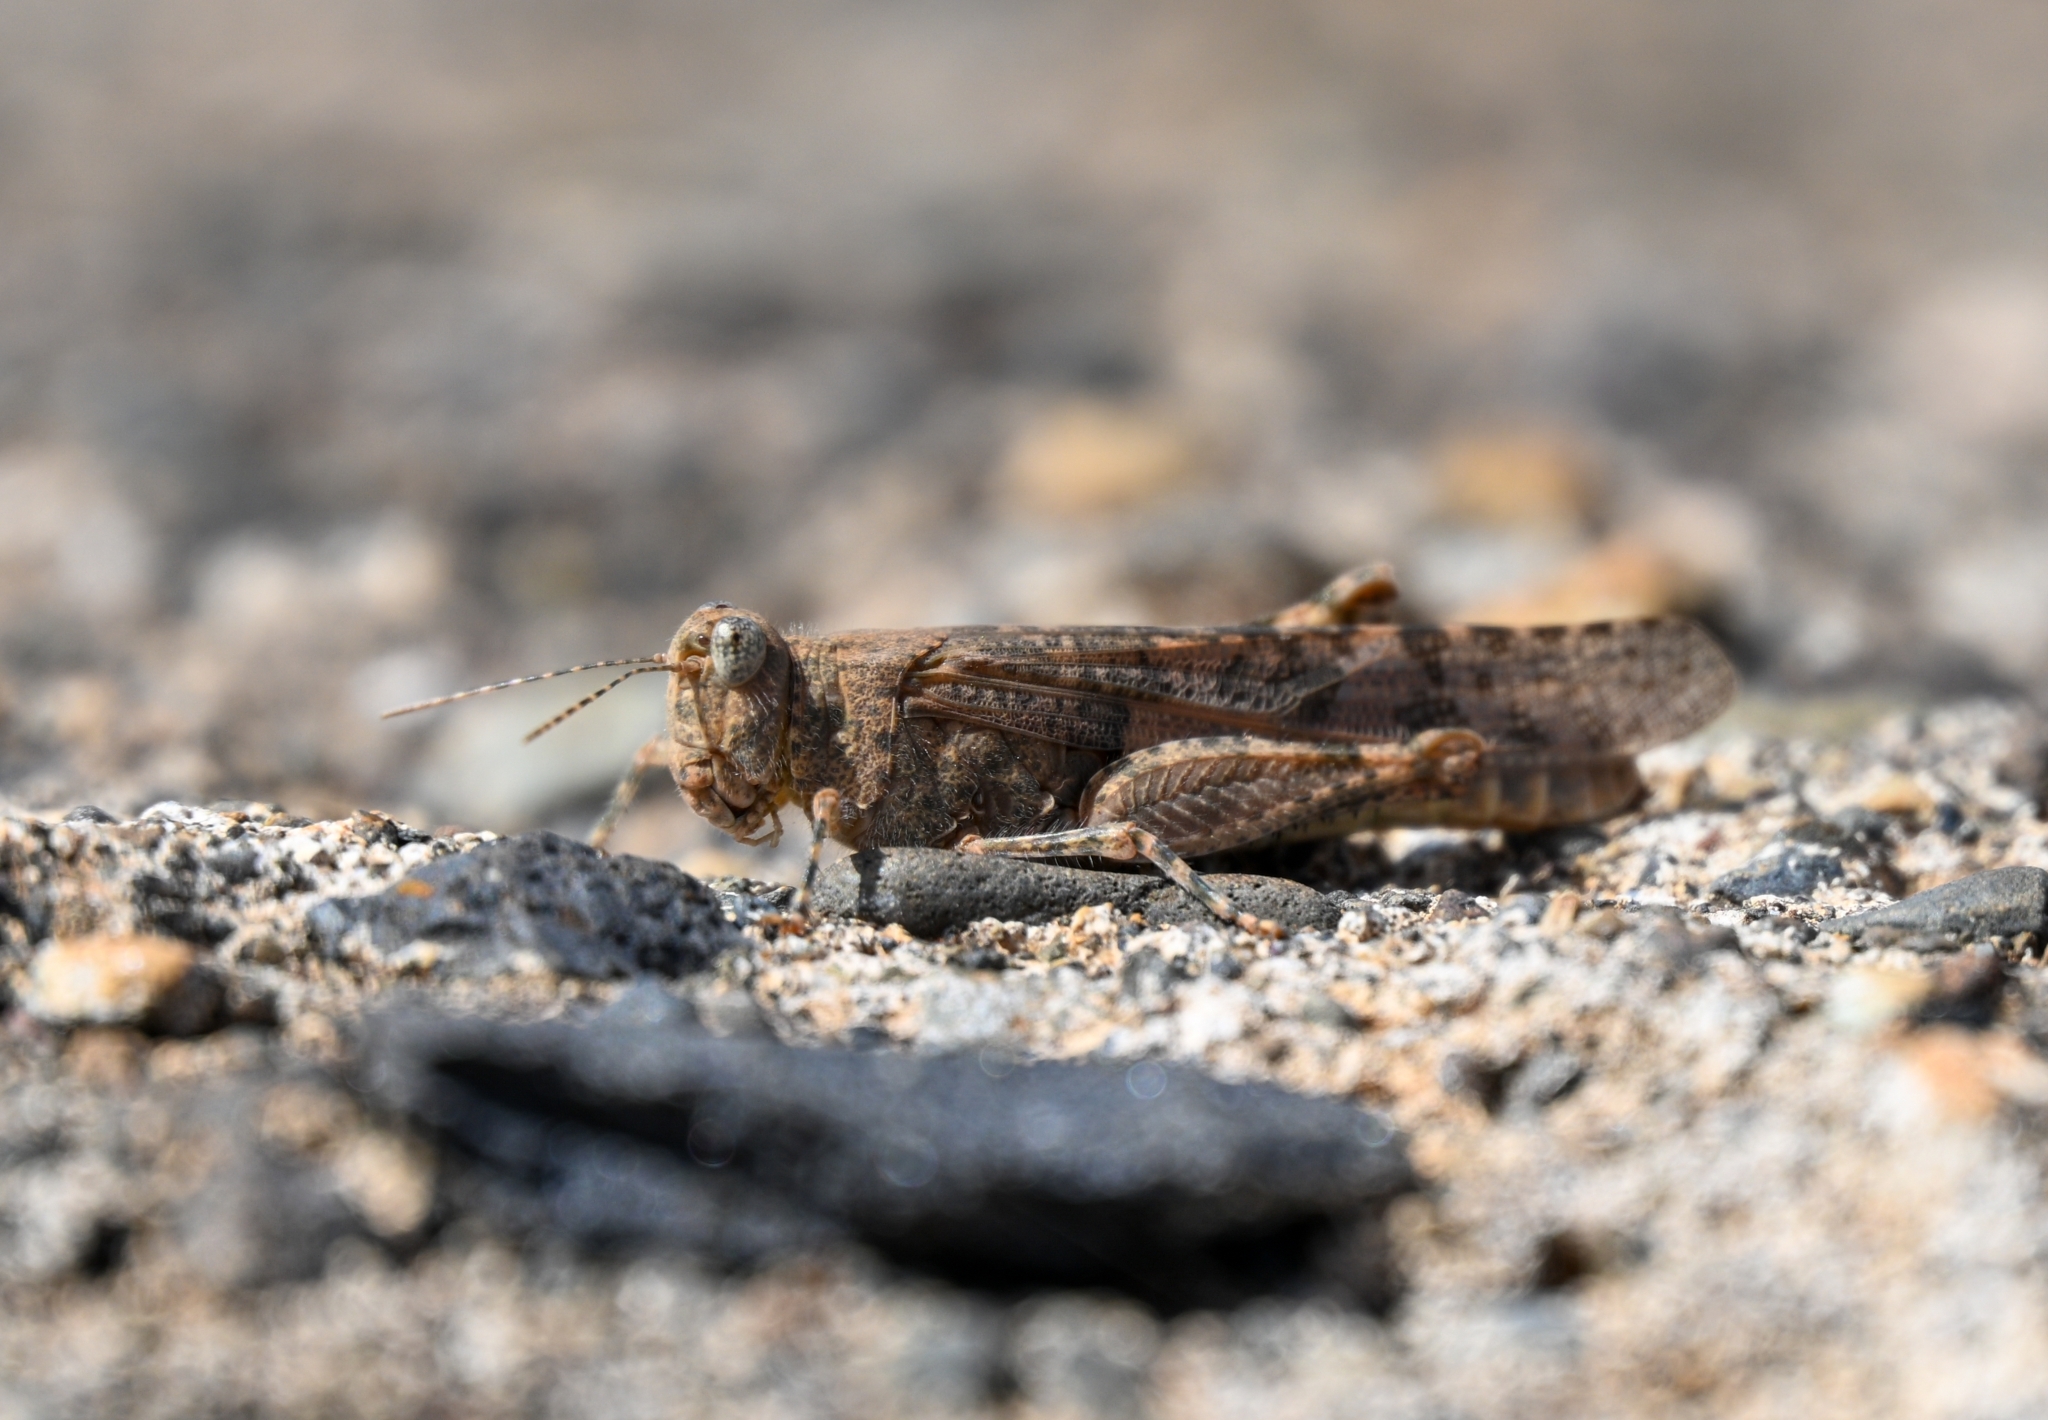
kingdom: Animalia
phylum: Arthropoda
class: Insecta
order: Orthoptera
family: Acrididae
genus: Sphingonotus
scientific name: Sphingonotus rubescens
